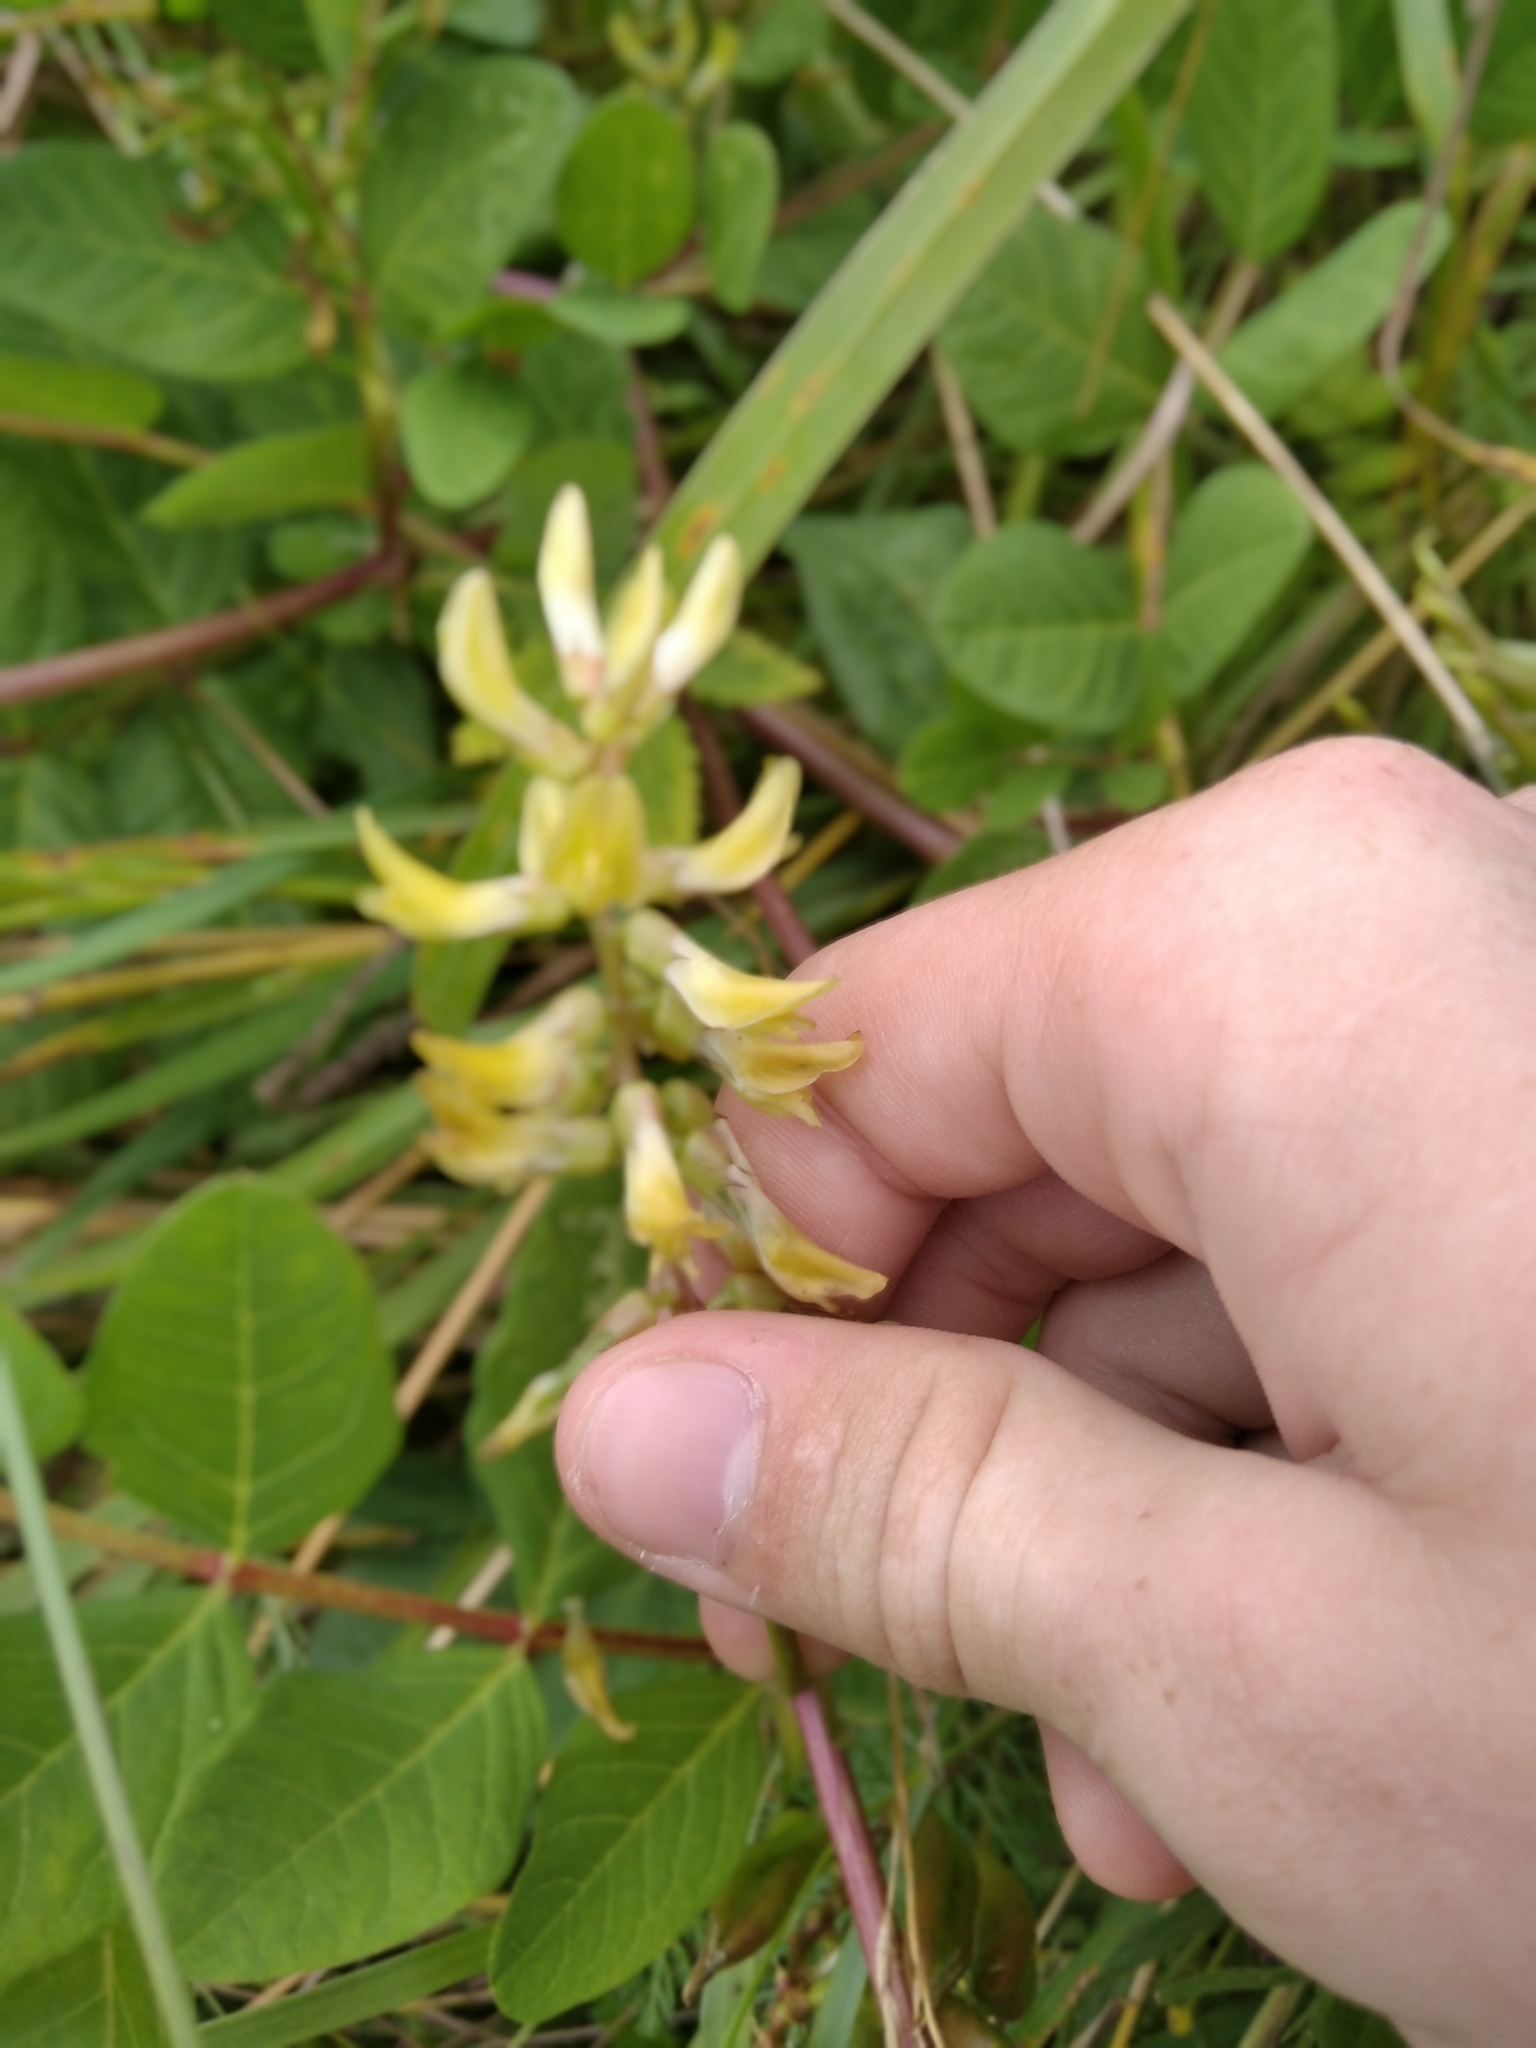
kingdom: Plantae
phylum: Tracheophyta
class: Magnoliopsida
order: Fabales
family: Fabaceae
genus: Astragalus
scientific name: Astragalus glycyphyllos
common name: Wild liquorice
